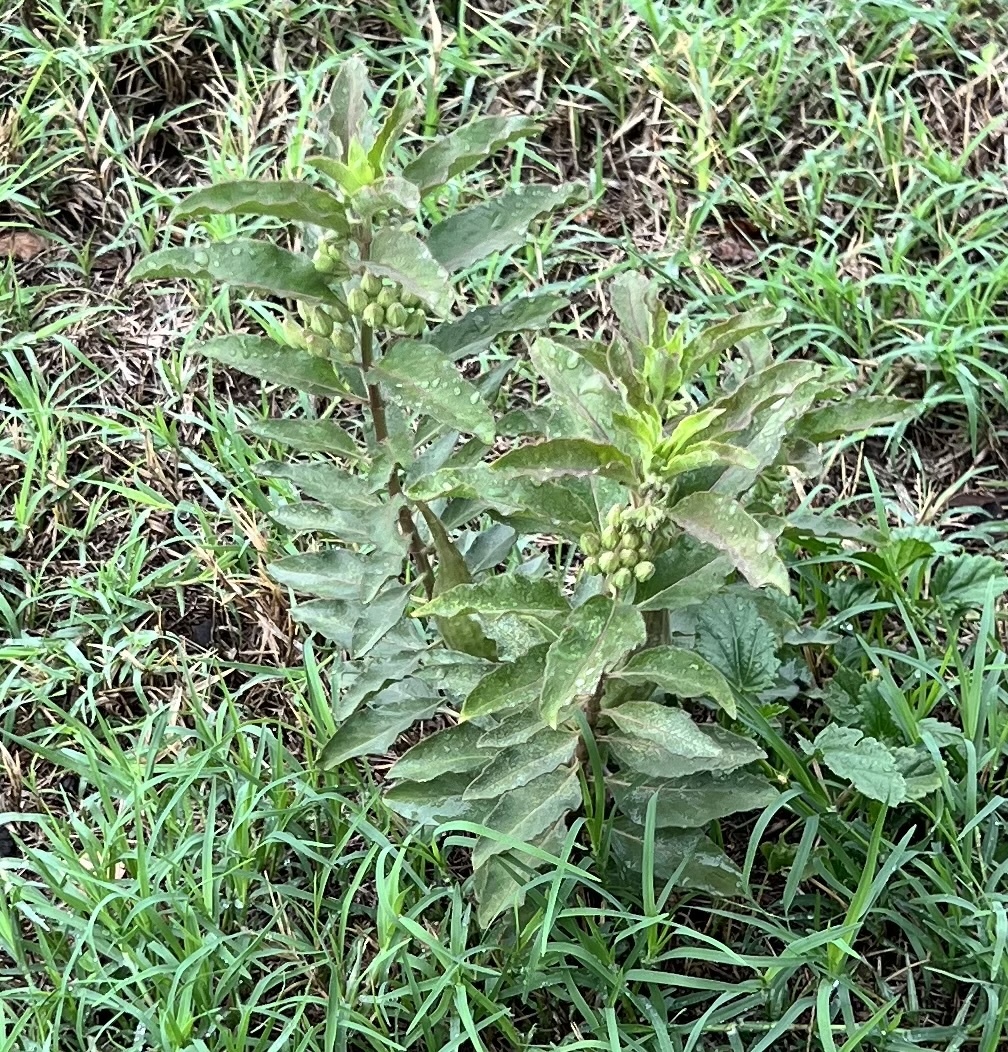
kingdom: Plantae
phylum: Tracheophyta
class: Magnoliopsida
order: Gentianales
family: Apocynaceae
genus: Asclepias
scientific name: Asclepias oenotheroides
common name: Zizotes milkweed
